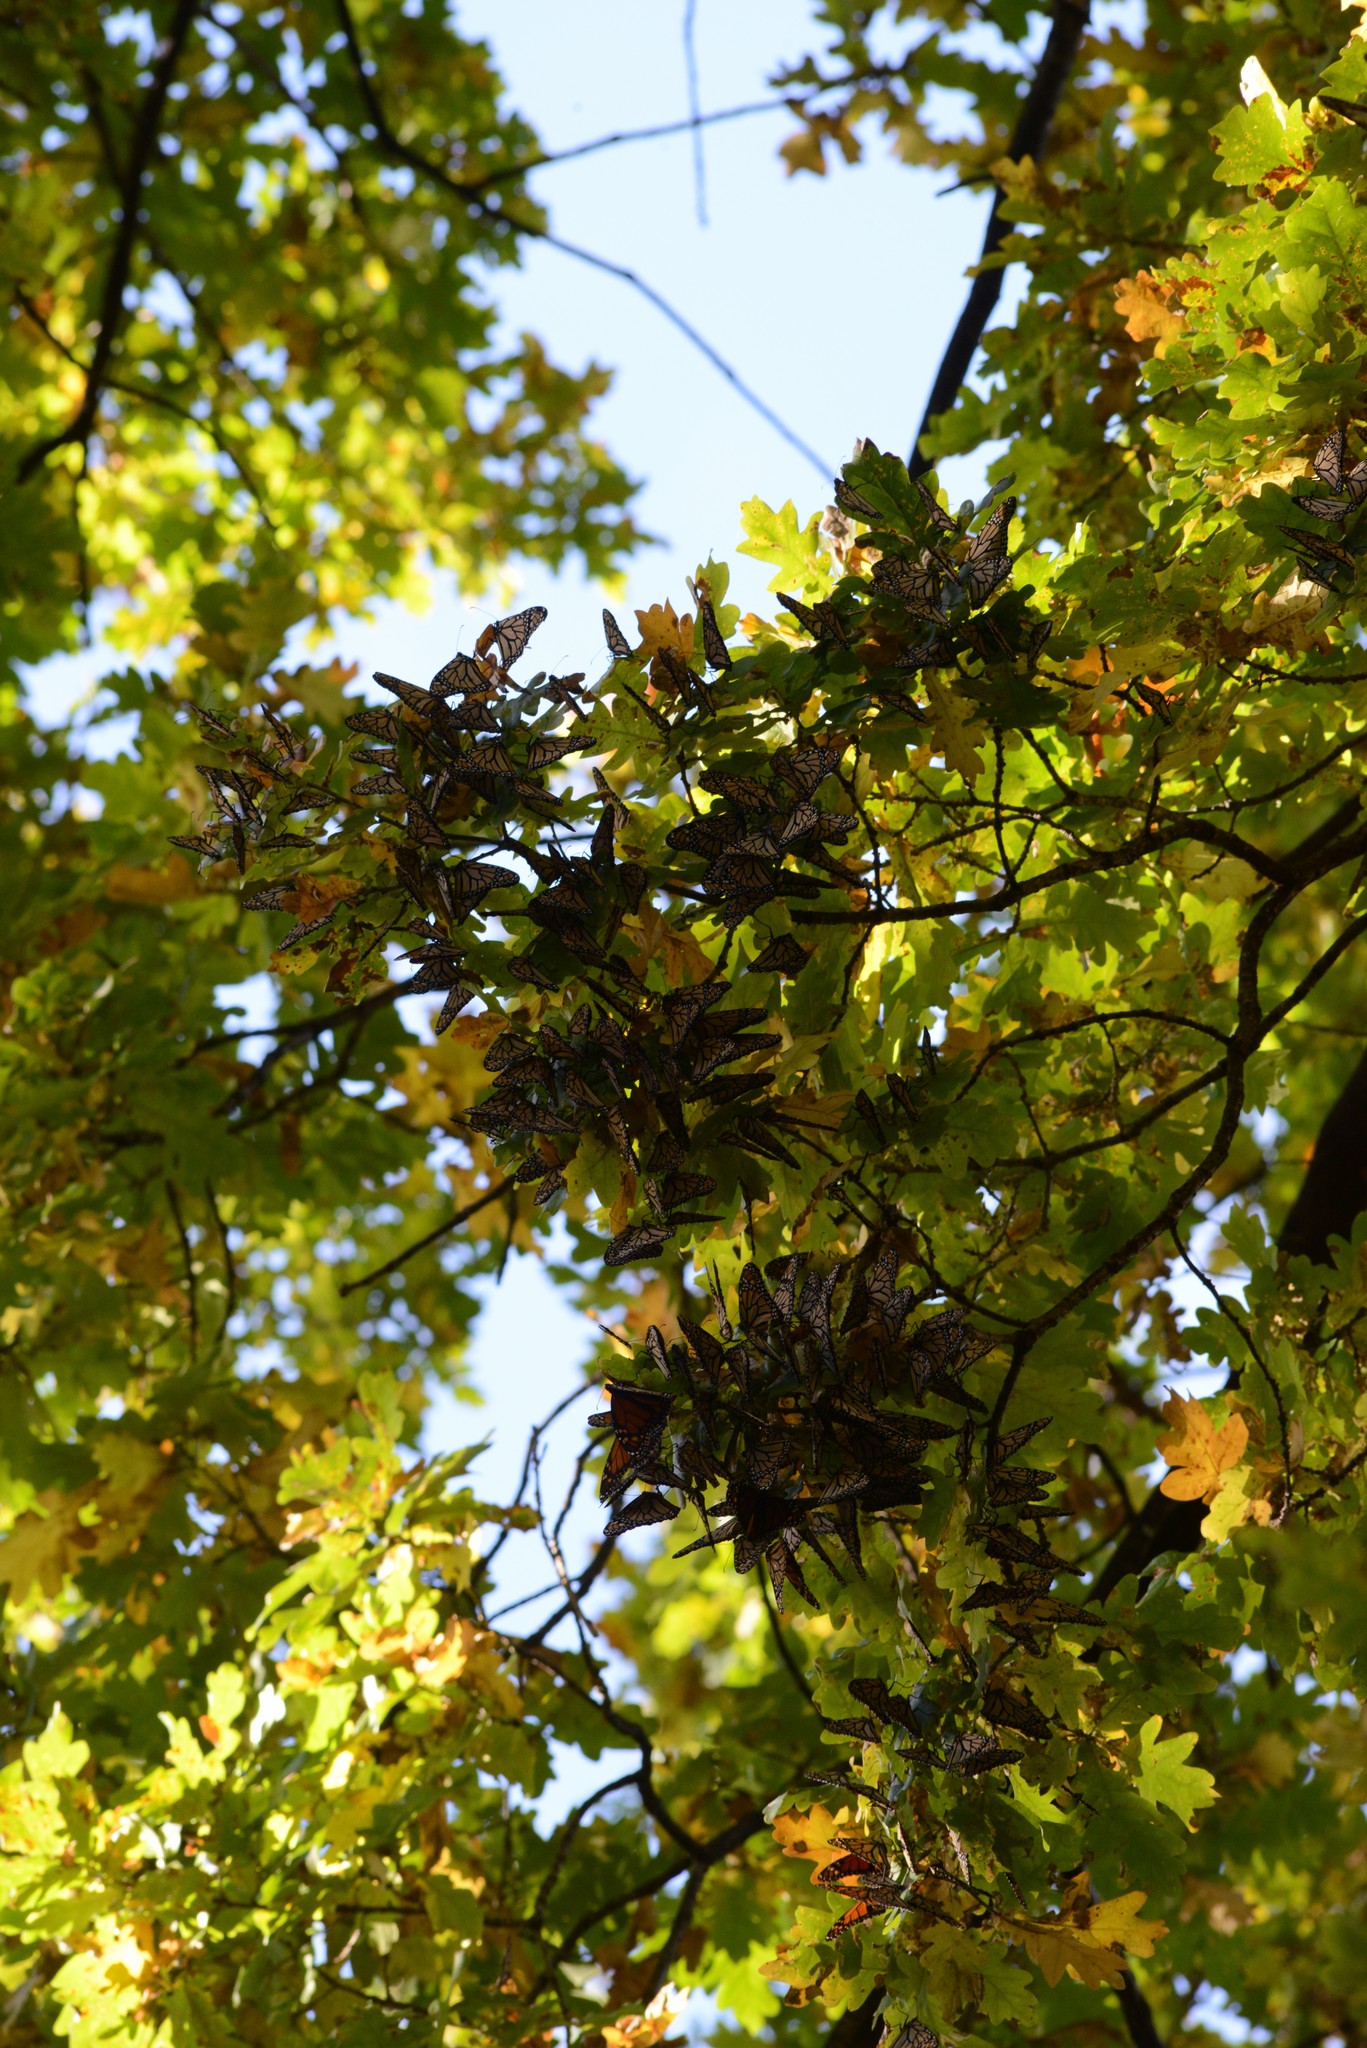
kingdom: Animalia
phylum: Arthropoda
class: Insecta
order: Lepidoptera
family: Nymphalidae
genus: Danaus
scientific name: Danaus plexippus
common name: Monarch
